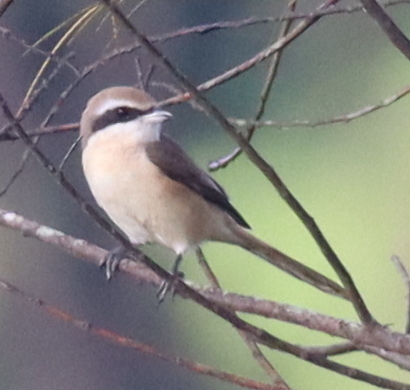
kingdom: Animalia
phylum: Chordata
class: Aves
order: Passeriformes
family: Laniidae
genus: Lanius
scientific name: Lanius cristatus
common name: Brown shrike
